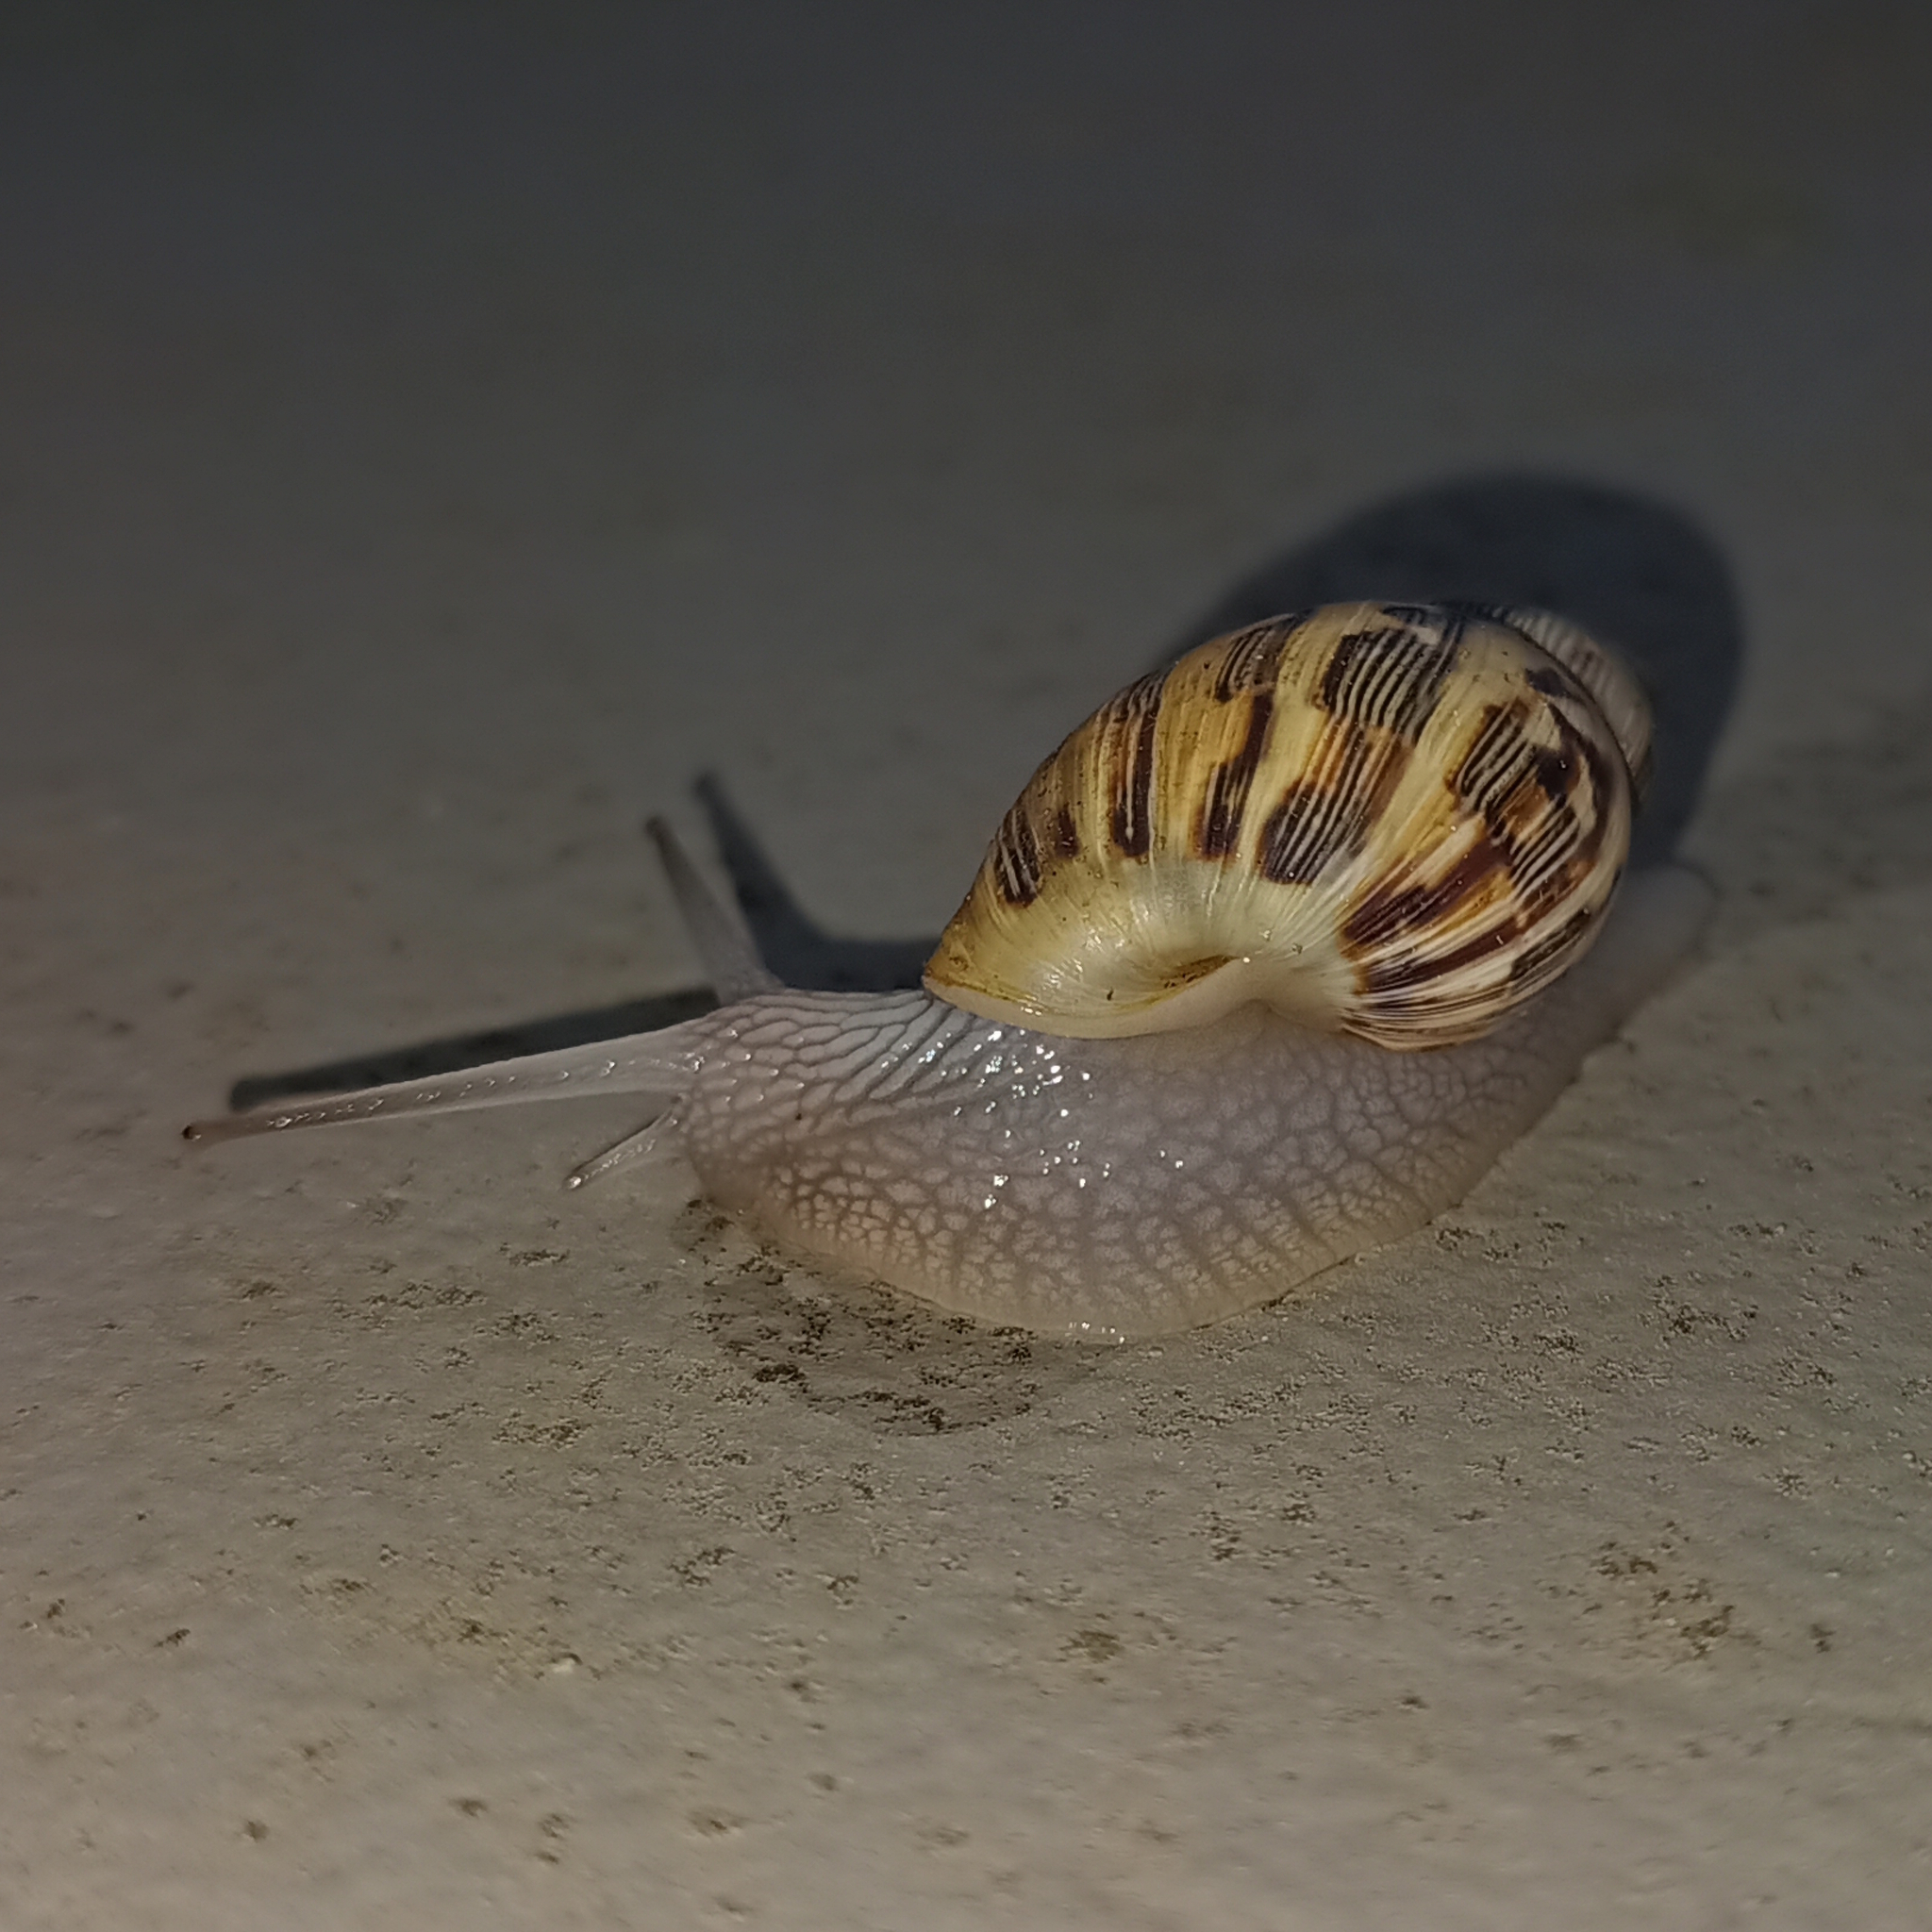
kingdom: Animalia
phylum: Mollusca
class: Gastropoda
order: Stylommatophora
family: Bulimulidae
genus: Drymaeus
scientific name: Drymaeus papyraceus
